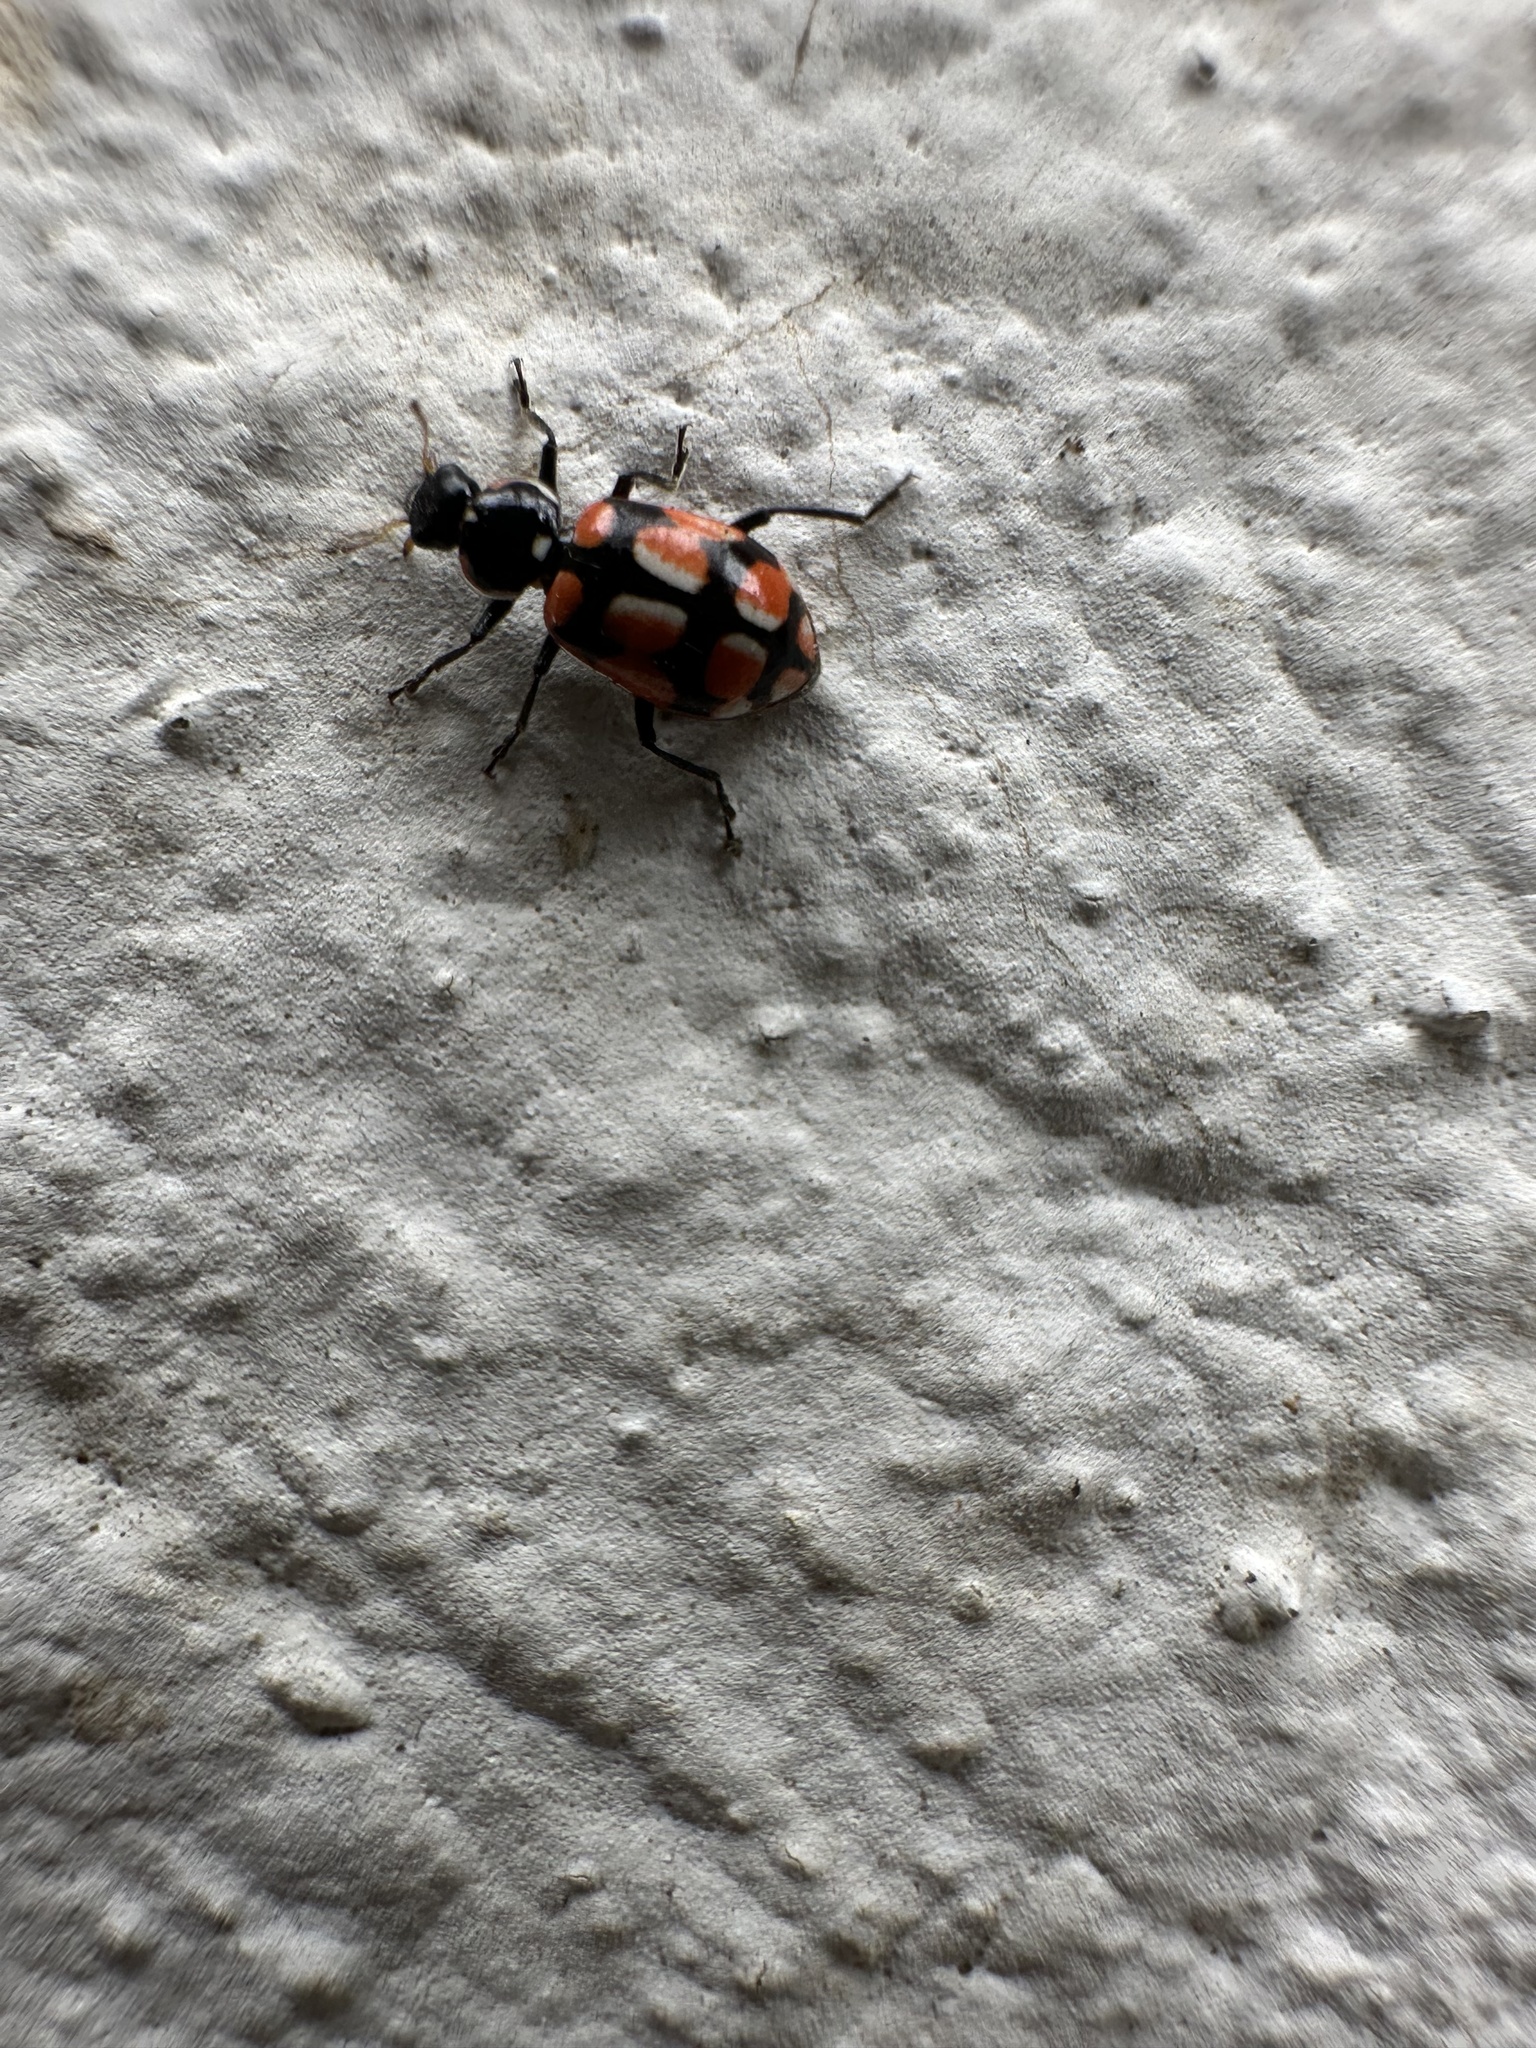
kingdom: Animalia
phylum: Arthropoda
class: Insecta
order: Coleoptera
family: Coccinellidae
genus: Eriopis
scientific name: Eriopis chilensis
